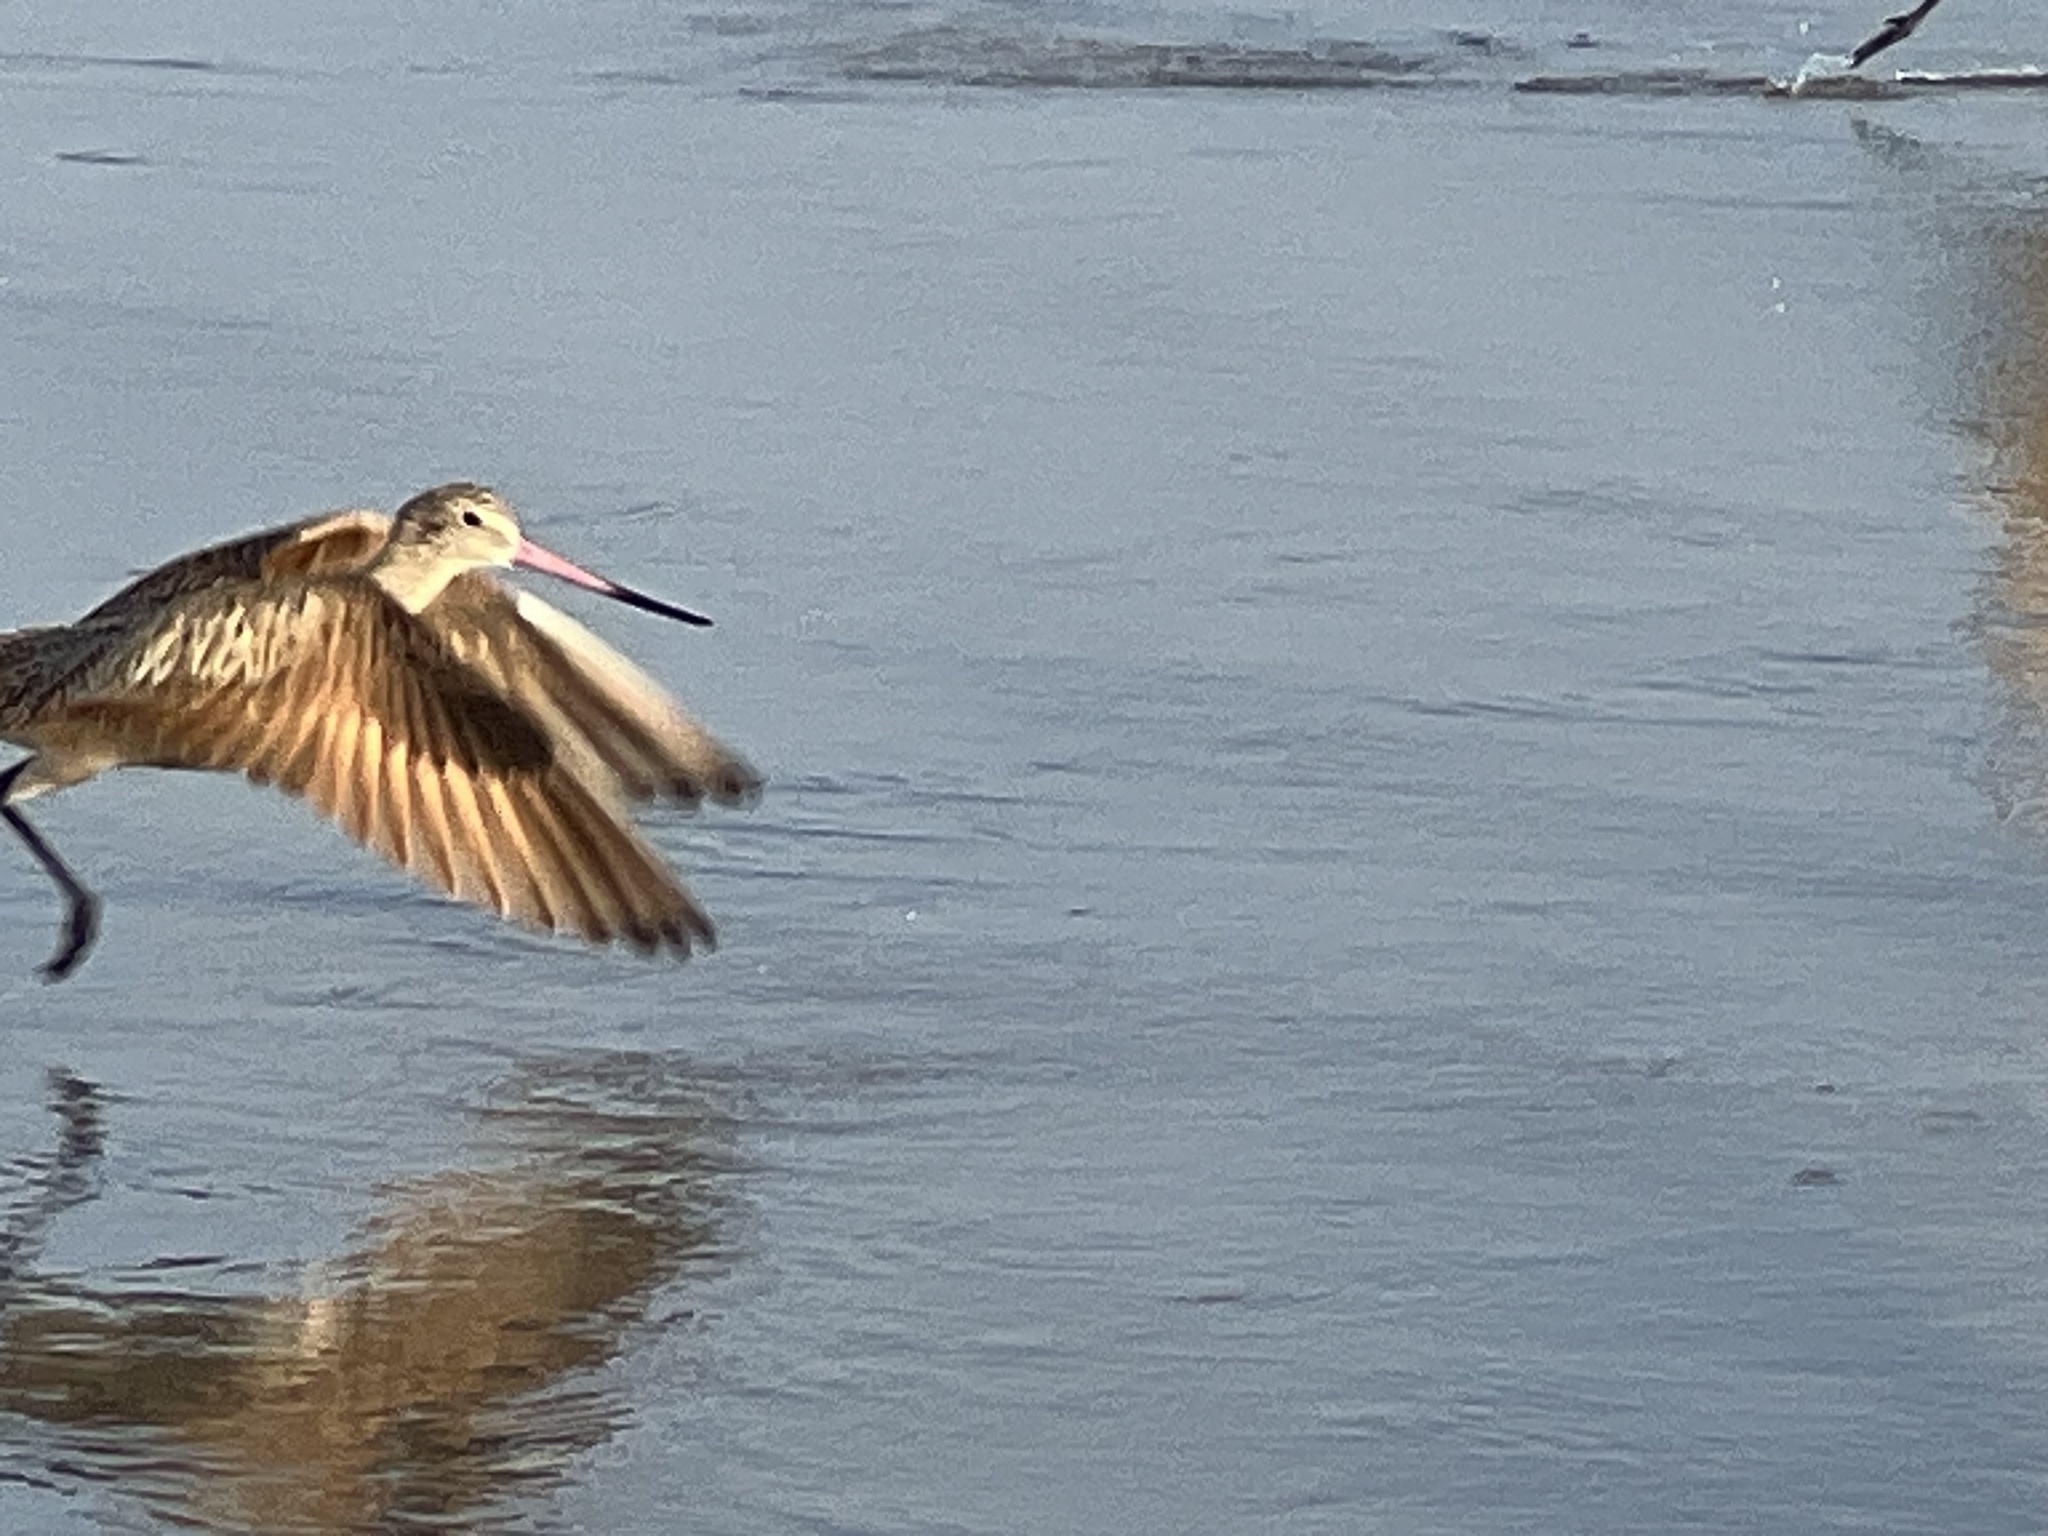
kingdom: Animalia
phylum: Chordata
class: Aves
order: Charadriiformes
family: Scolopacidae
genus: Limosa
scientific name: Limosa fedoa
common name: Marbled godwit
